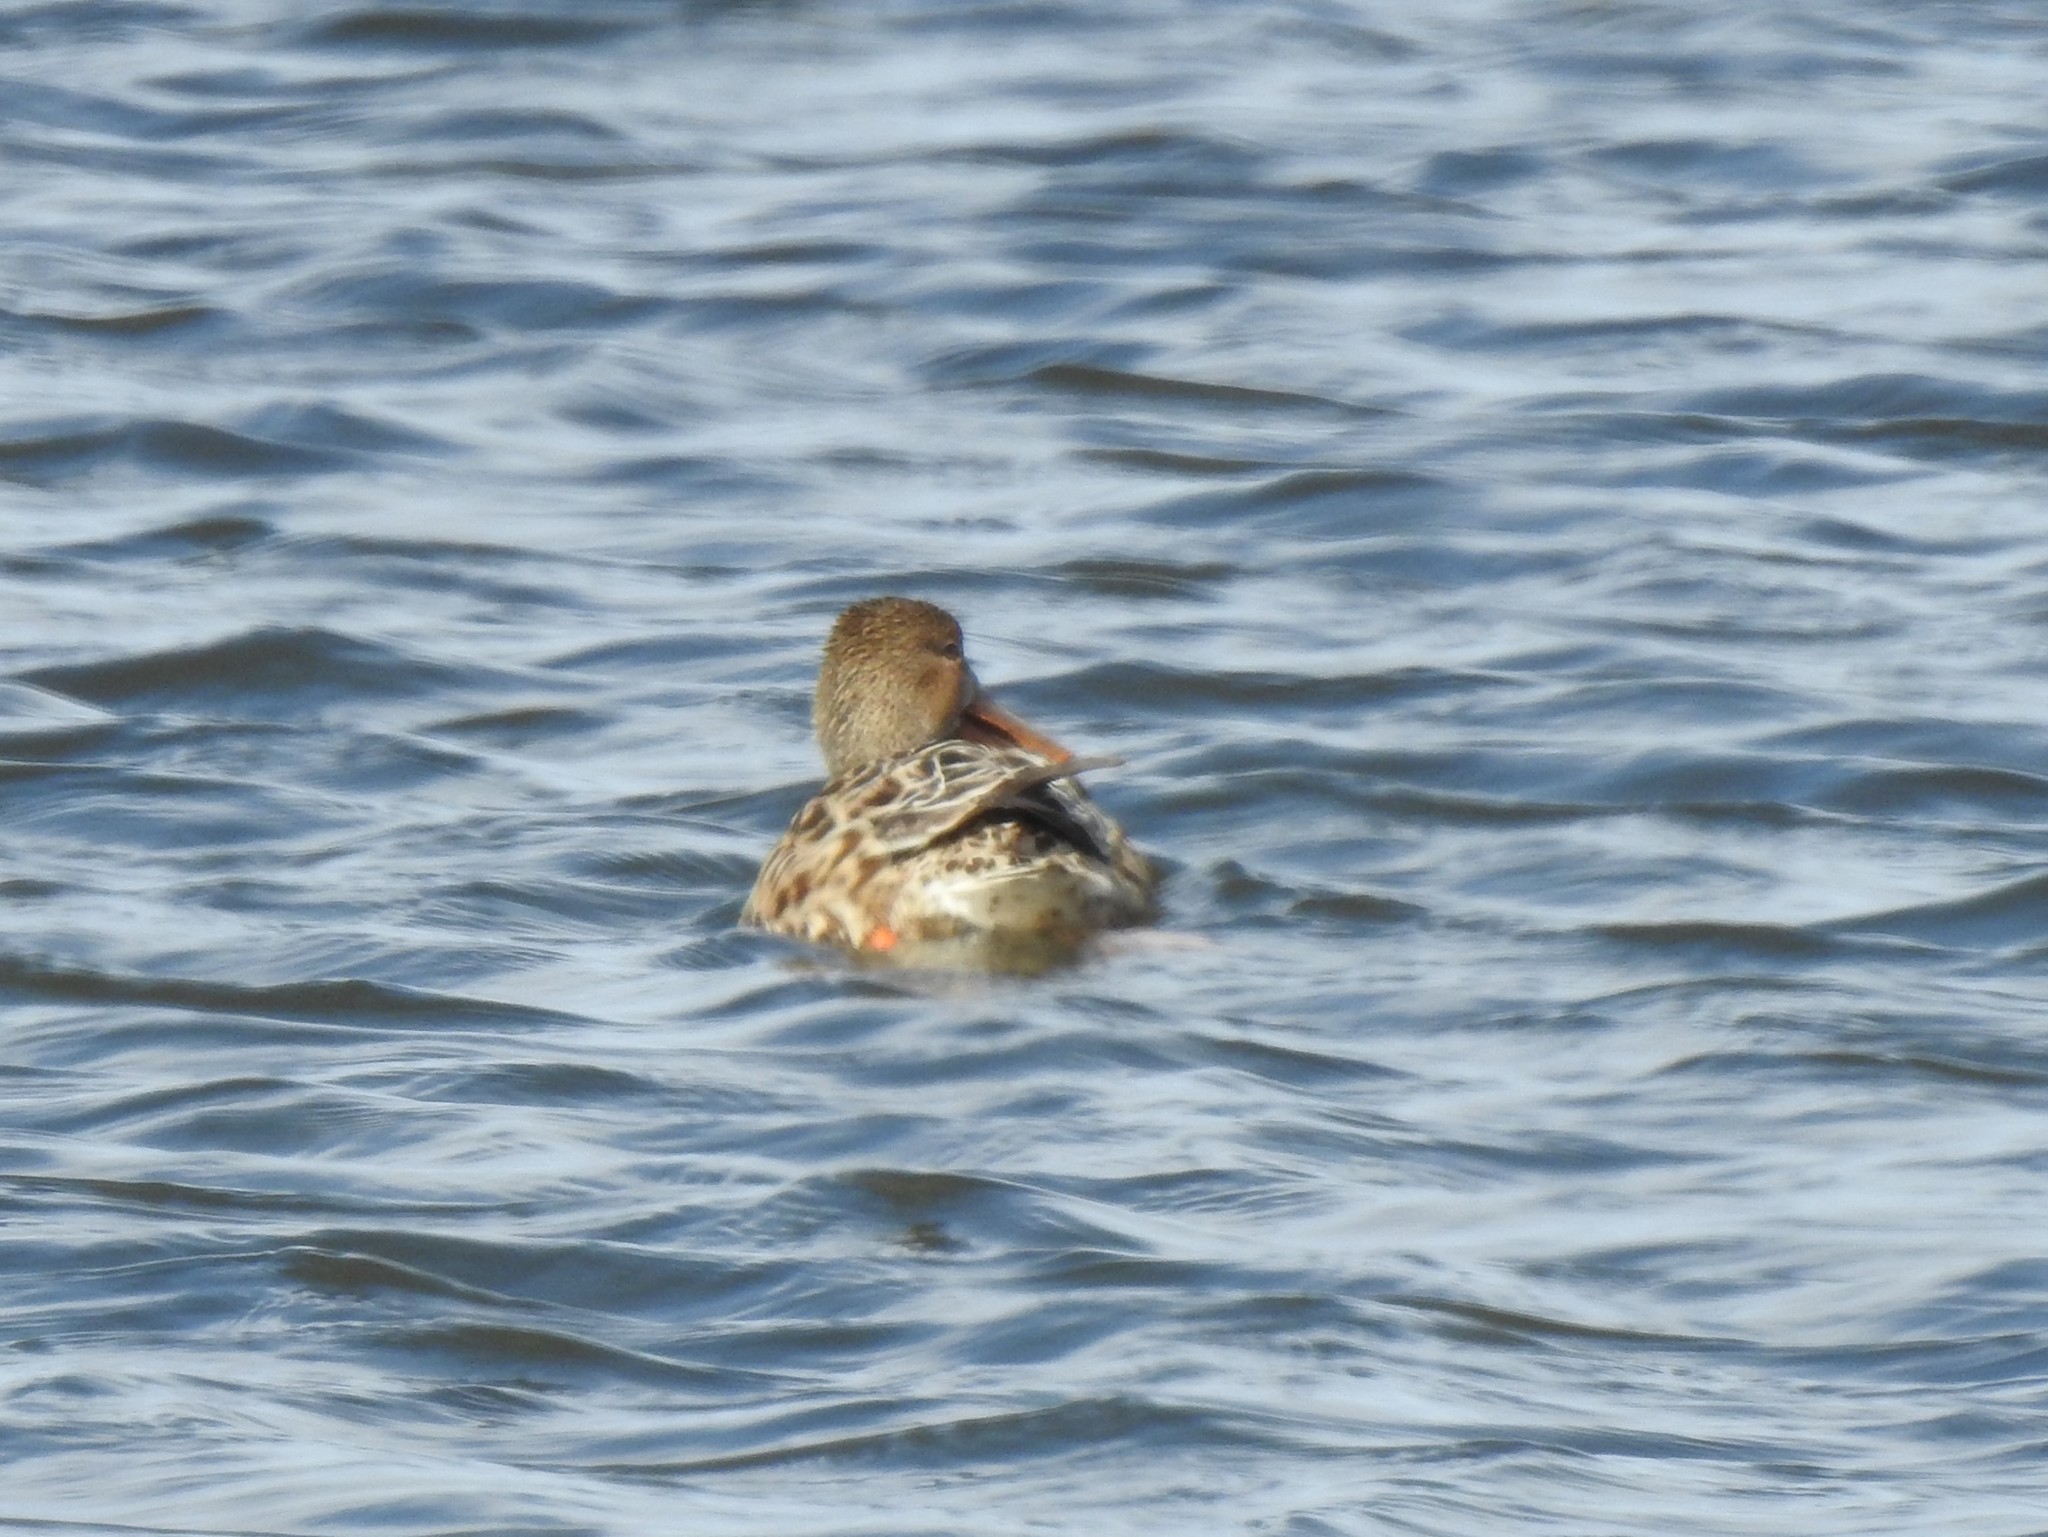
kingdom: Animalia
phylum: Chordata
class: Aves
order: Anseriformes
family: Anatidae
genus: Spatula
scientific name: Spatula clypeata
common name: Northern shoveler
